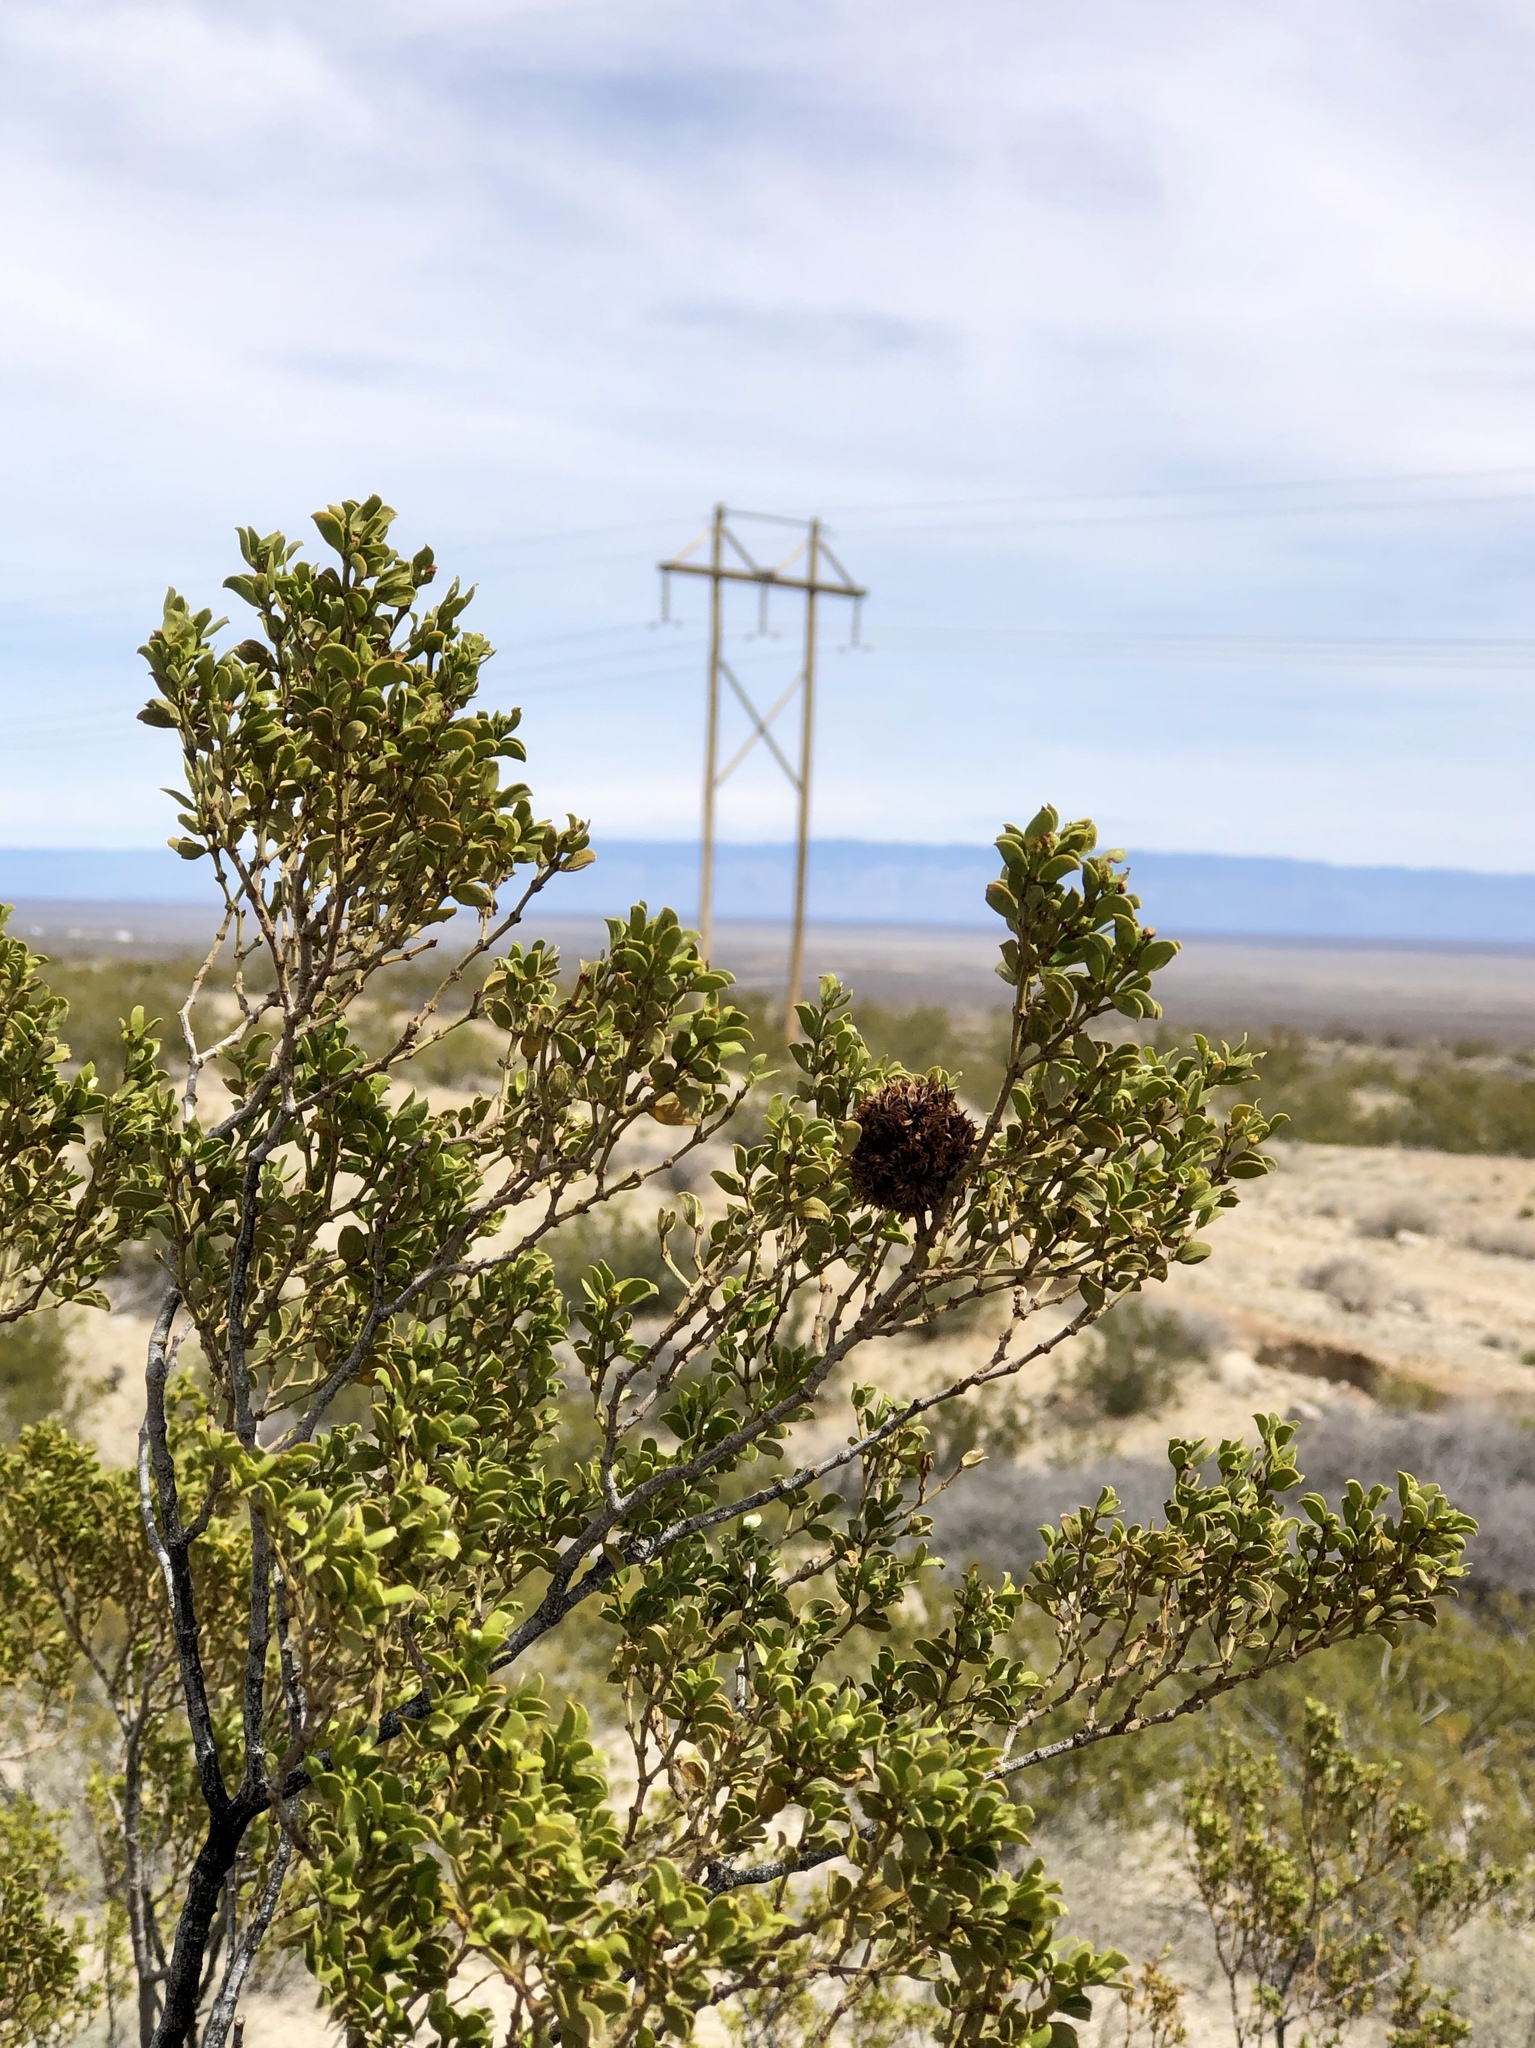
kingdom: Animalia
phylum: Arthropoda
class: Insecta
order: Diptera
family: Cecidomyiidae
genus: Asphondylia
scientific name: Asphondylia auripila
